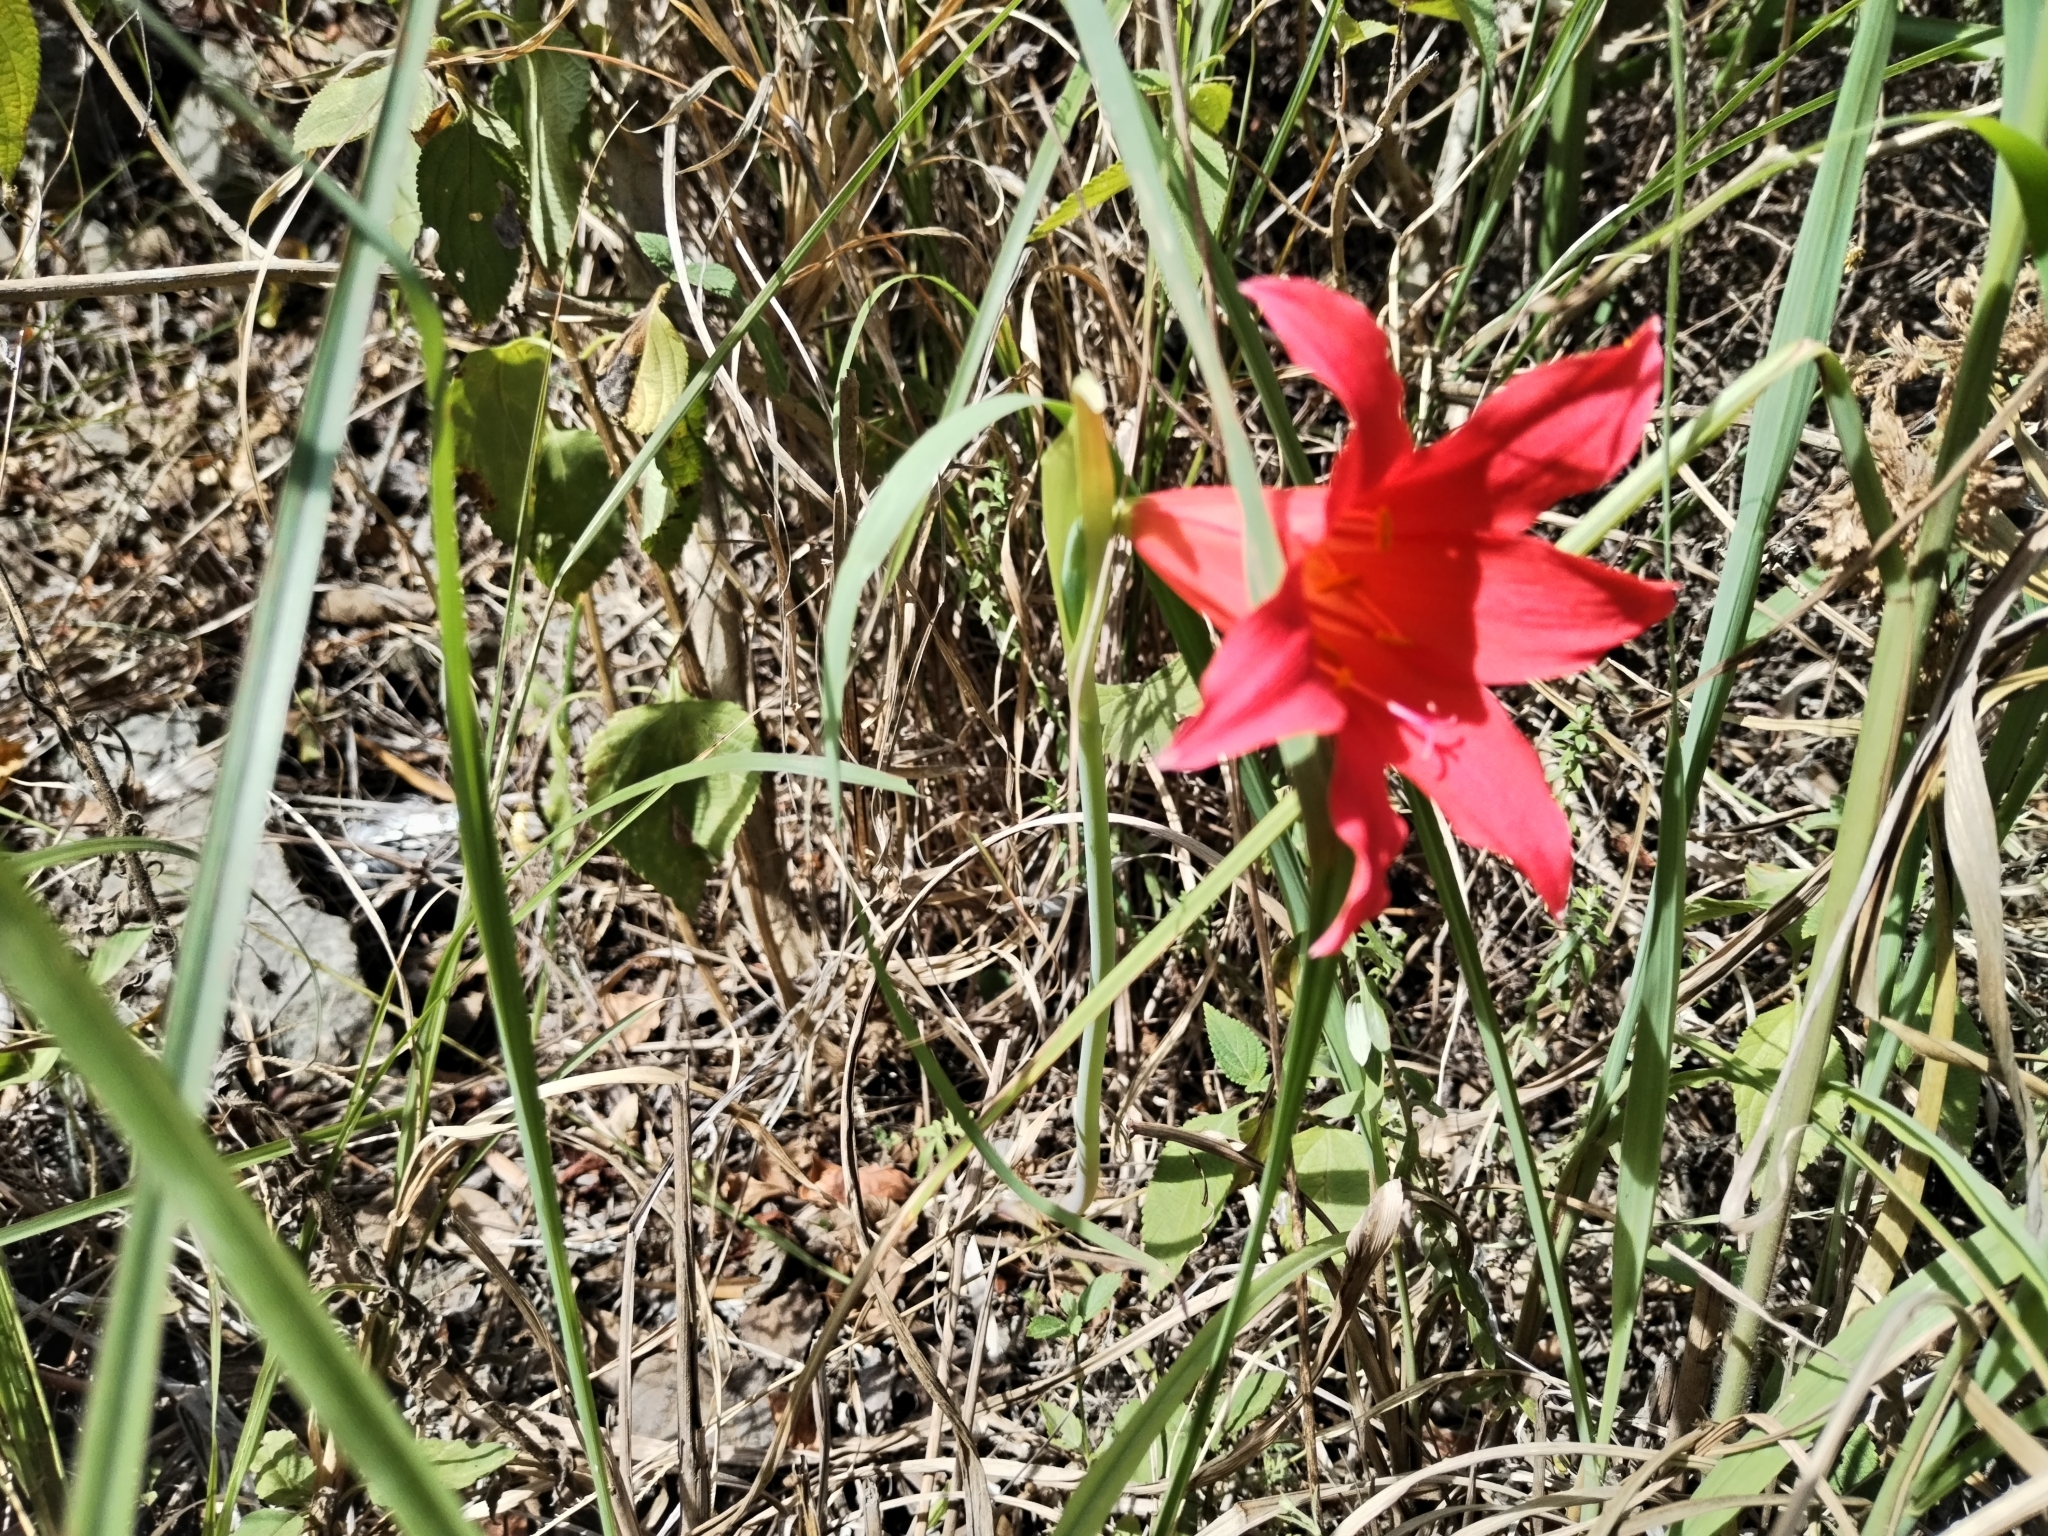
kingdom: Plantae
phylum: Tracheophyta
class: Liliopsida
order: Asparagales
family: Amaryllidaceae
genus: Cyrtanthus
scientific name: Cyrtanthus sanguineus
